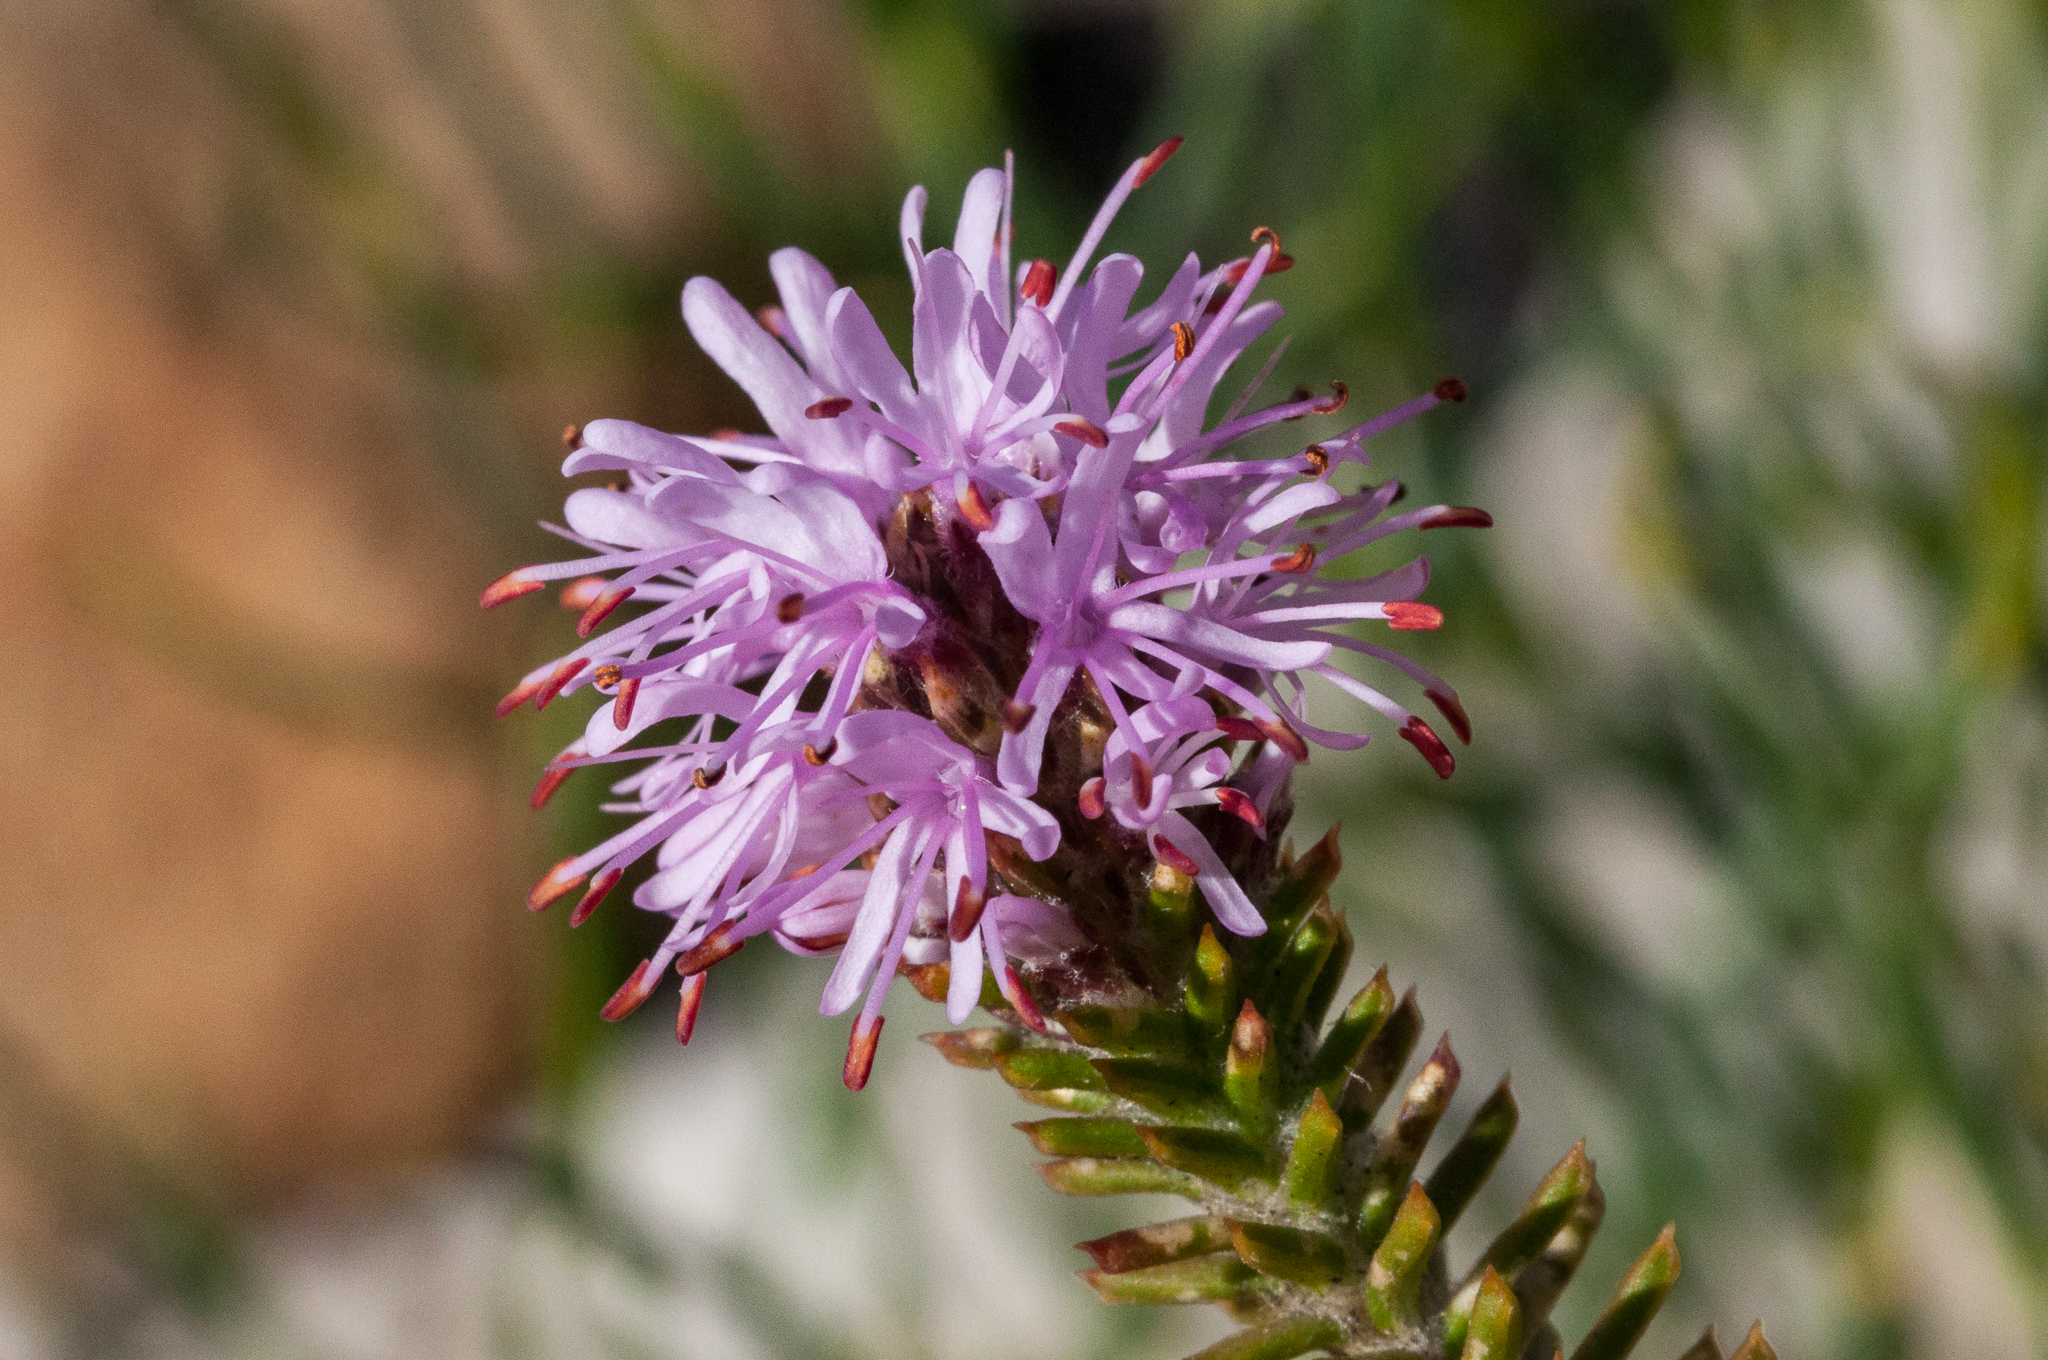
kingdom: Plantae
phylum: Tracheophyta
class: Magnoliopsida
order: Lamiales
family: Stilbaceae
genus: Stilbe
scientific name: Stilbe ericoides
